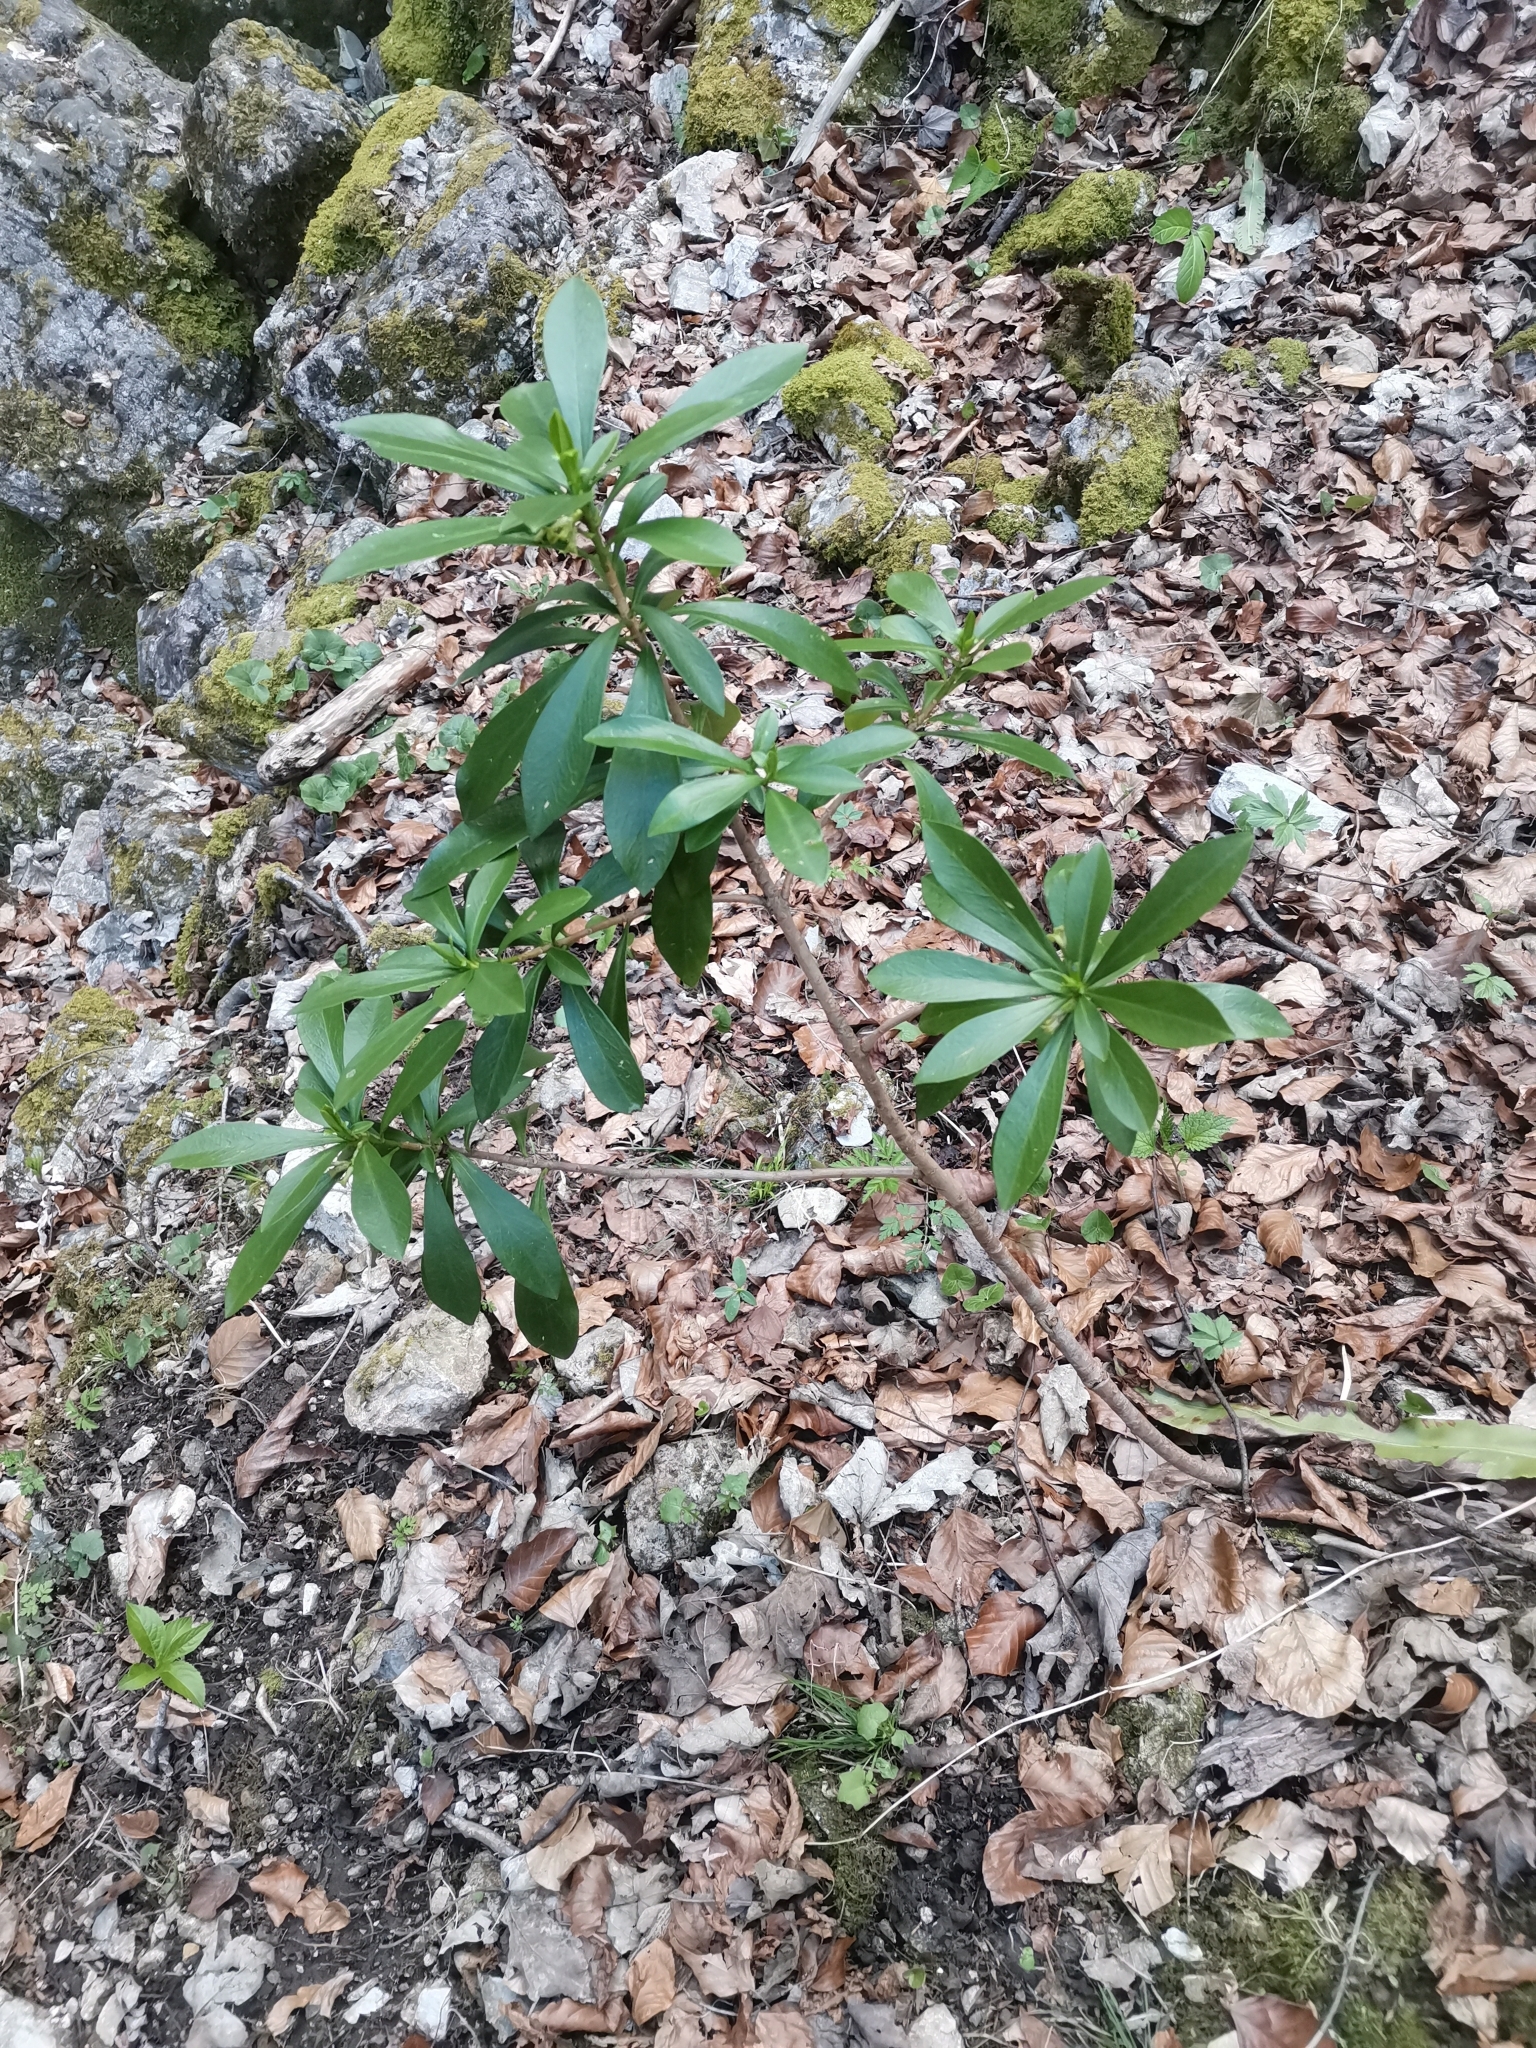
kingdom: Plantae
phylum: Tracheophyta
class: Magnoliopsida
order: Malvales
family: Thymelaeaceae
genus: Daphne
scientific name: Daphne laureola
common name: Spurge-laurel
